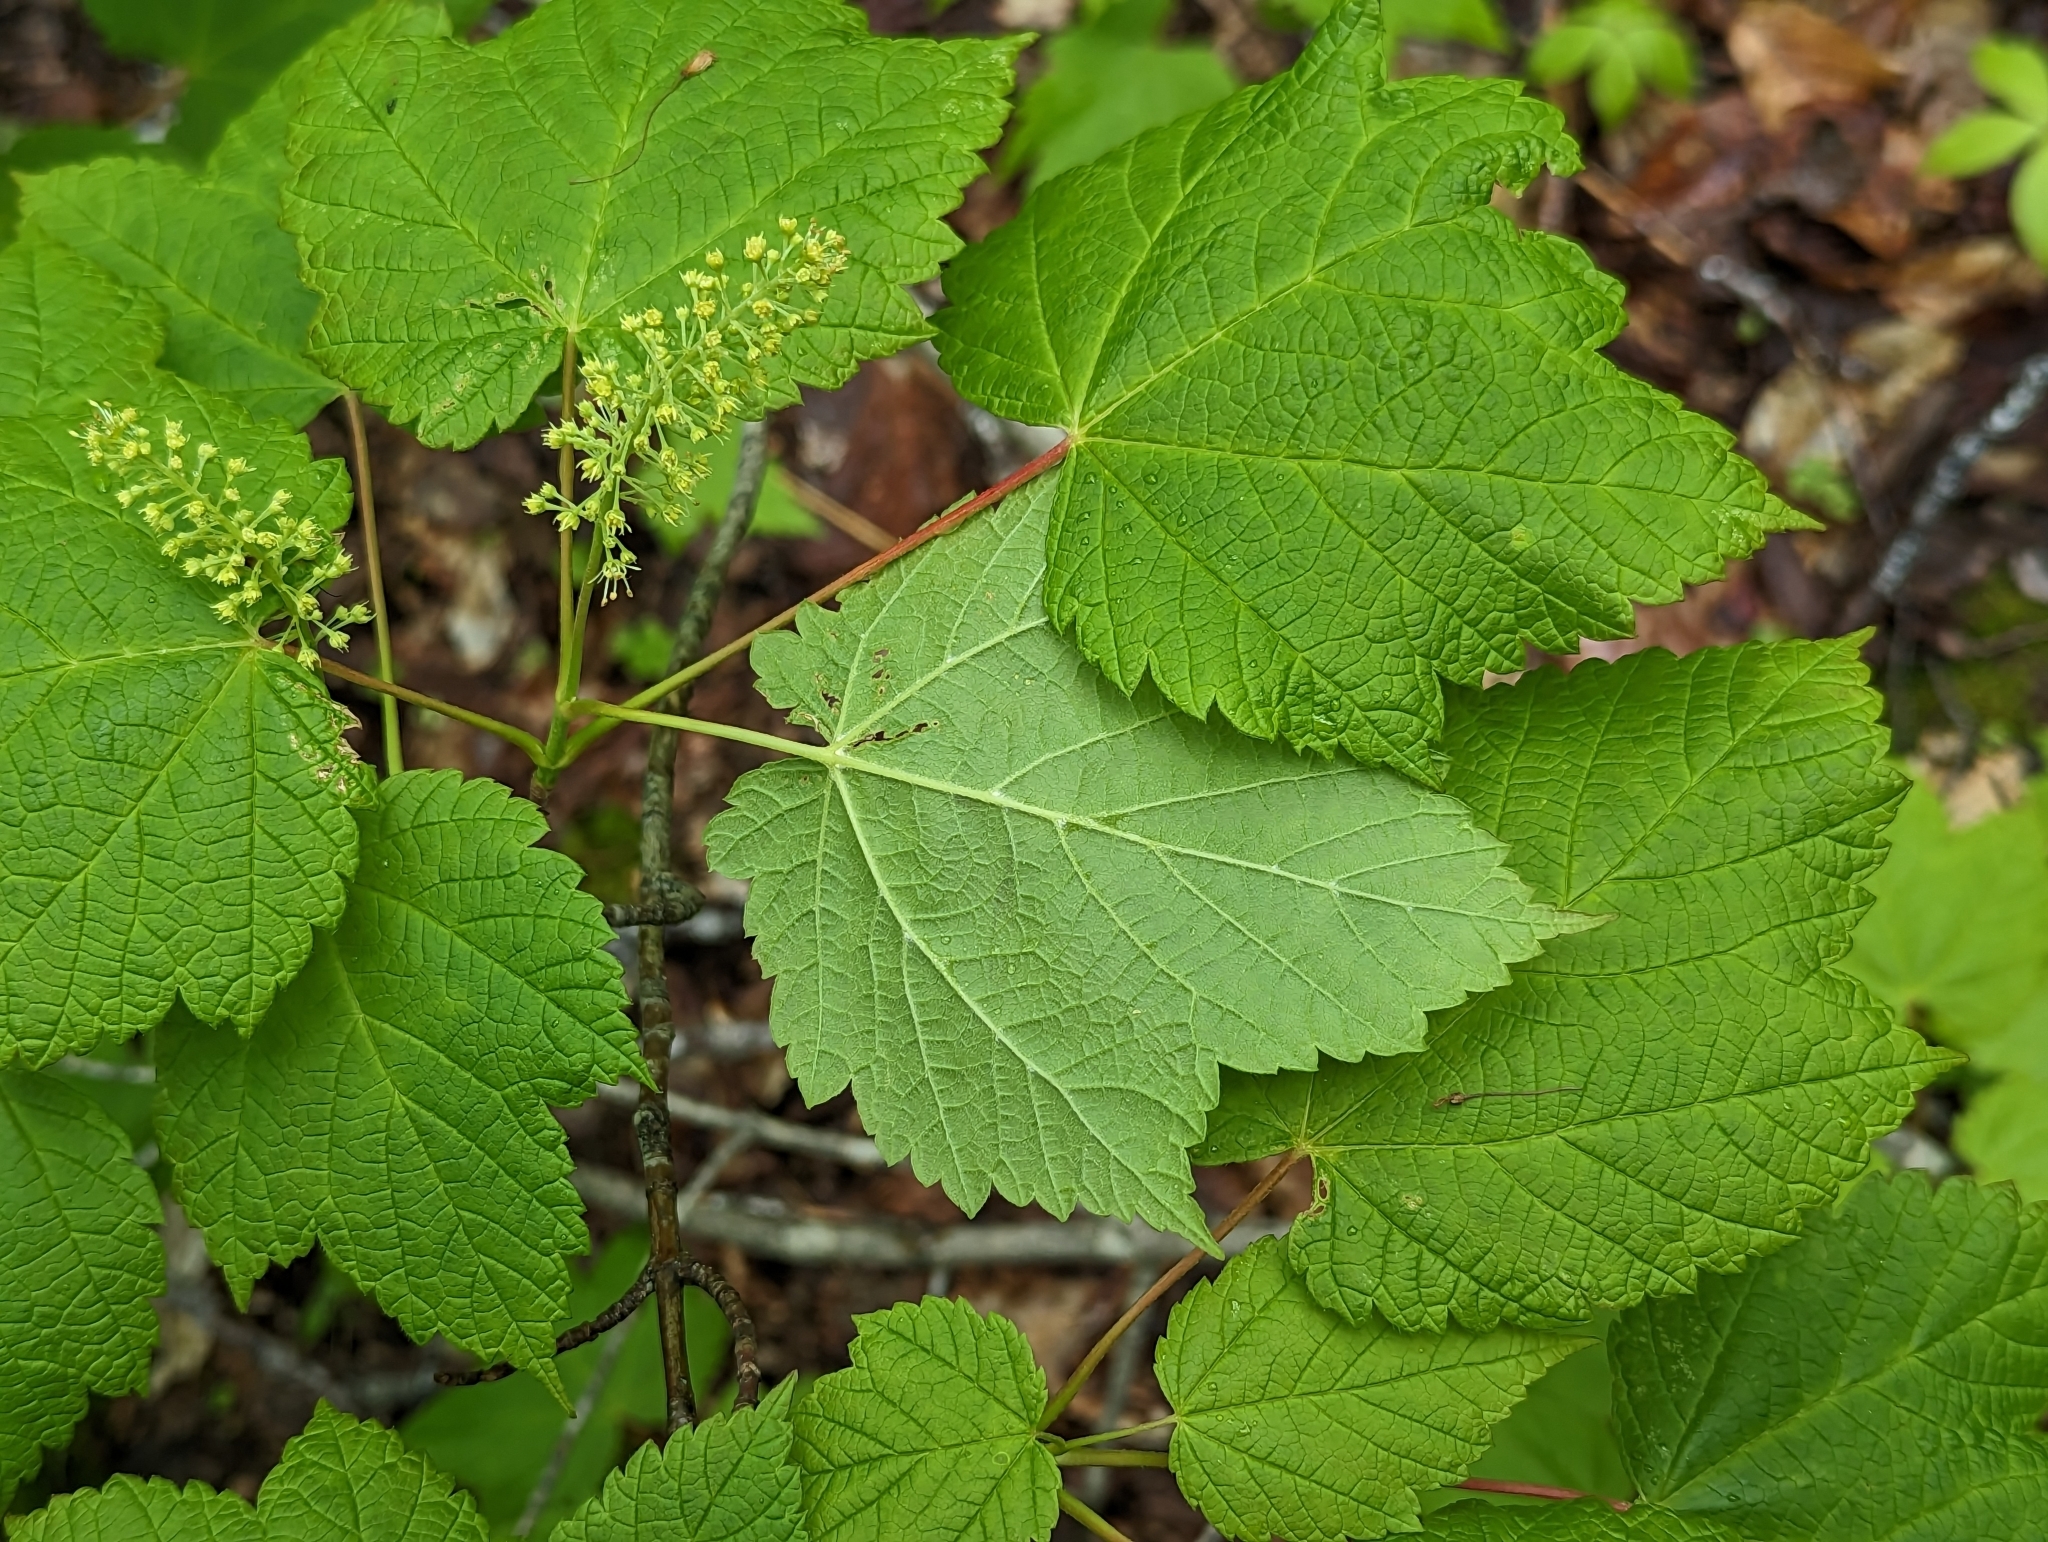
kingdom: Plantae
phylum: Tracheophyta
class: Magnoliopsida
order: Sapindales
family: Sapindaceae
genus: Acer
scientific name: Acer spicatum
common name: Mountain maple
